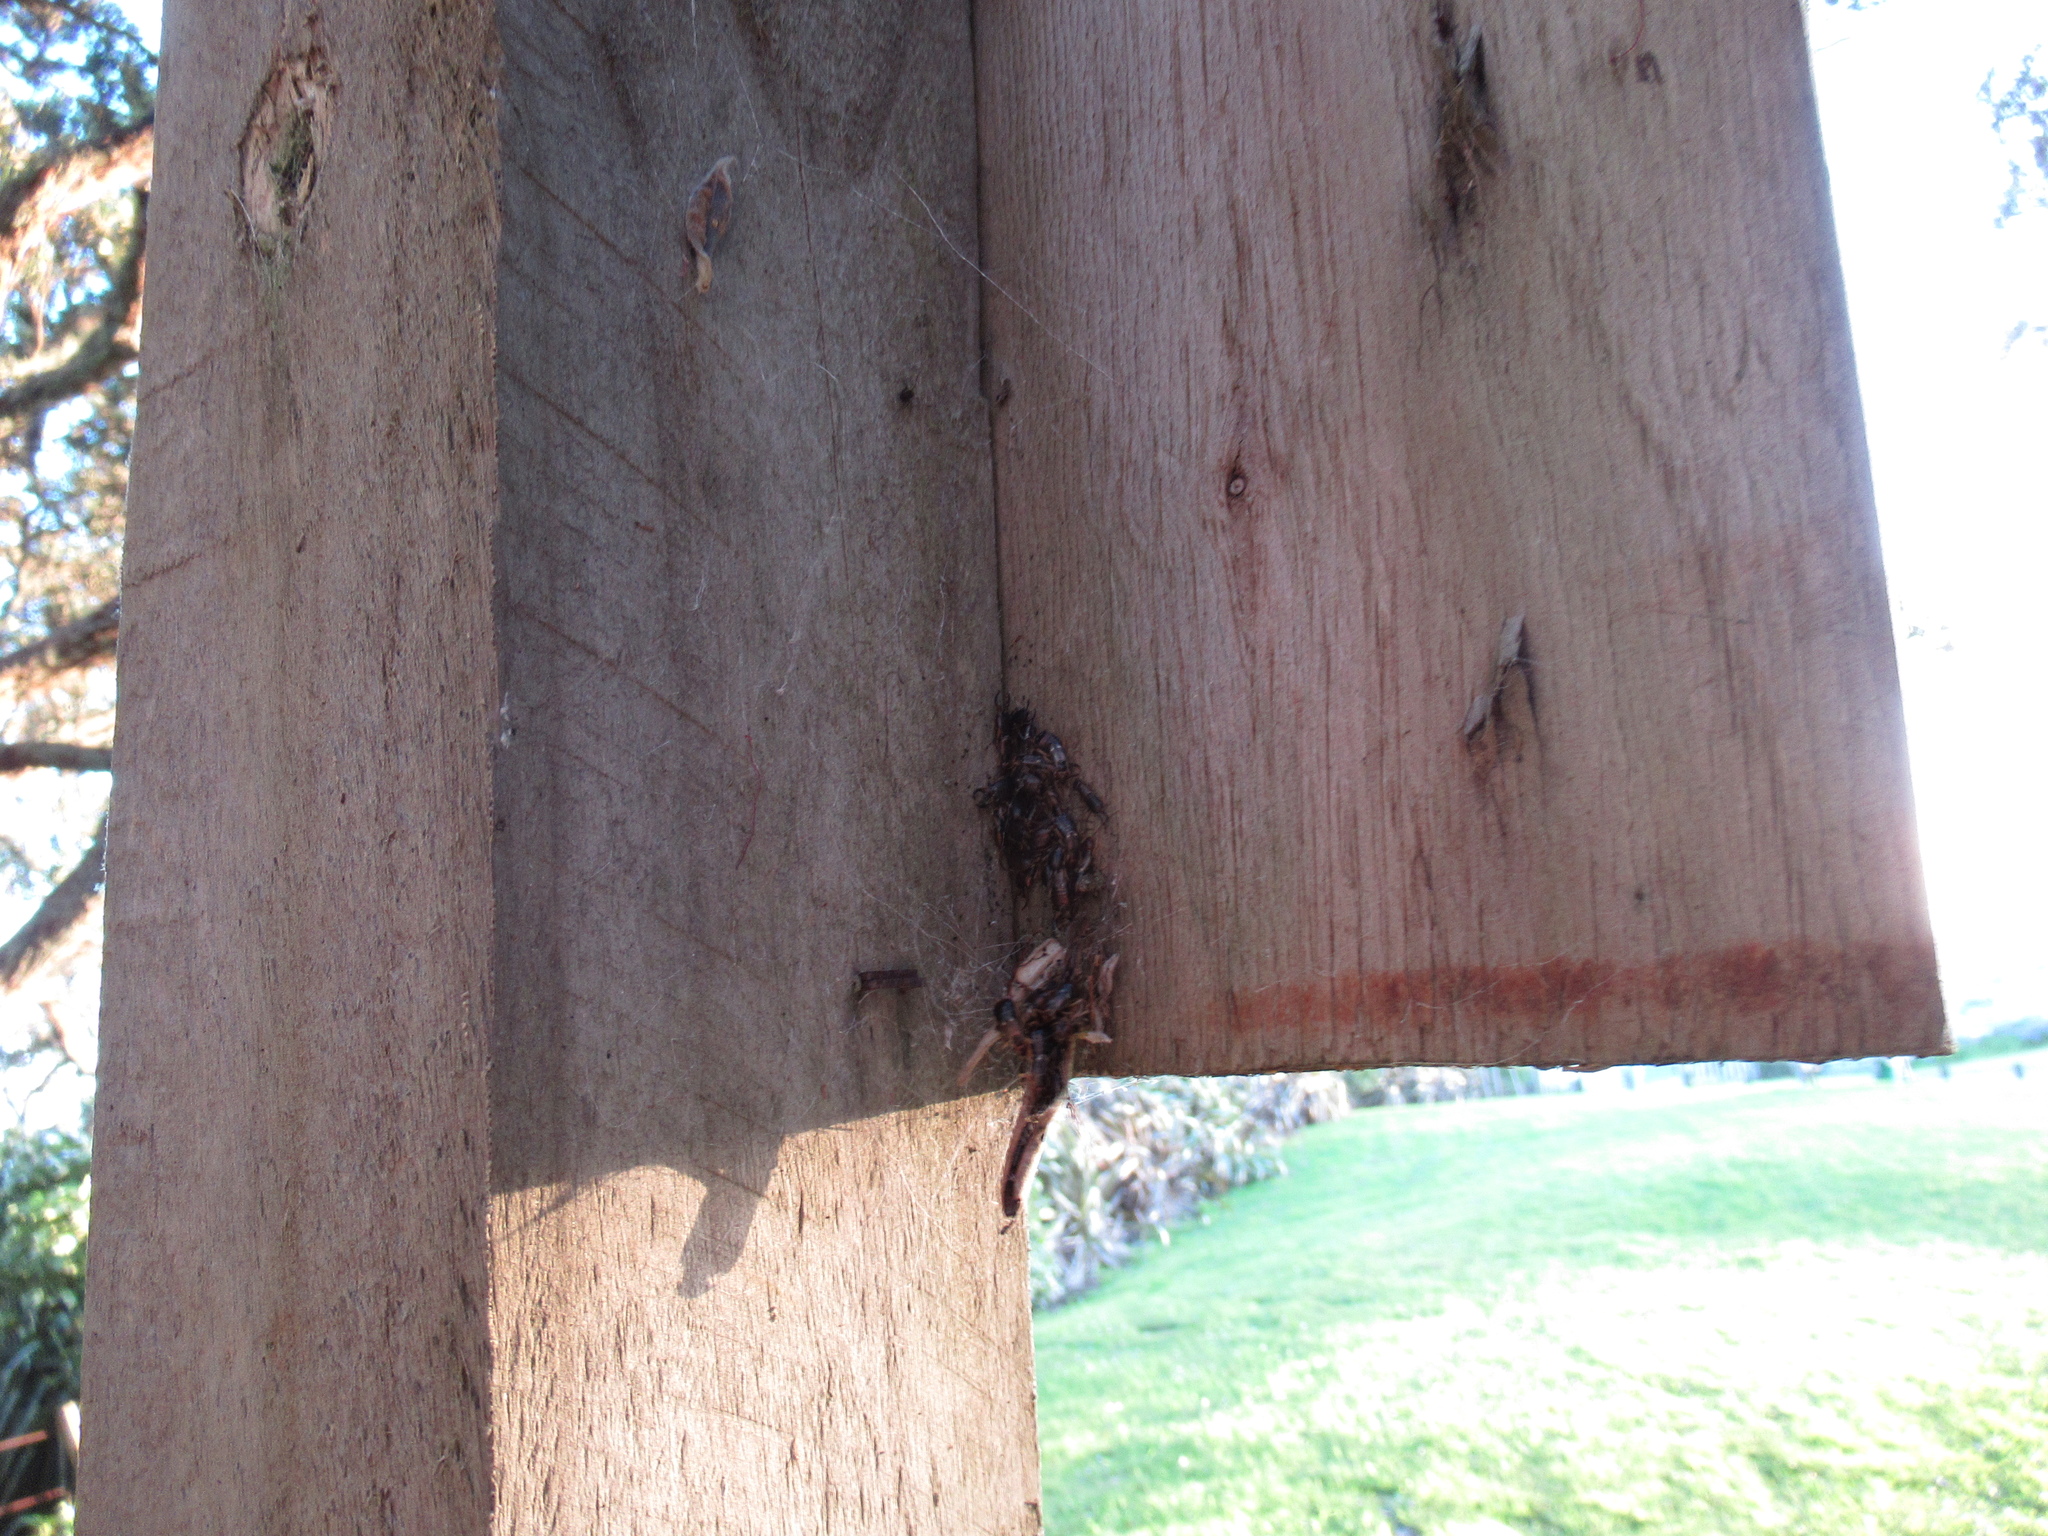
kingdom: Animalia
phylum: Arthropoda
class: Insecta
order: Dermaptera
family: Forficulidae
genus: Forficula
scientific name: Forficula
